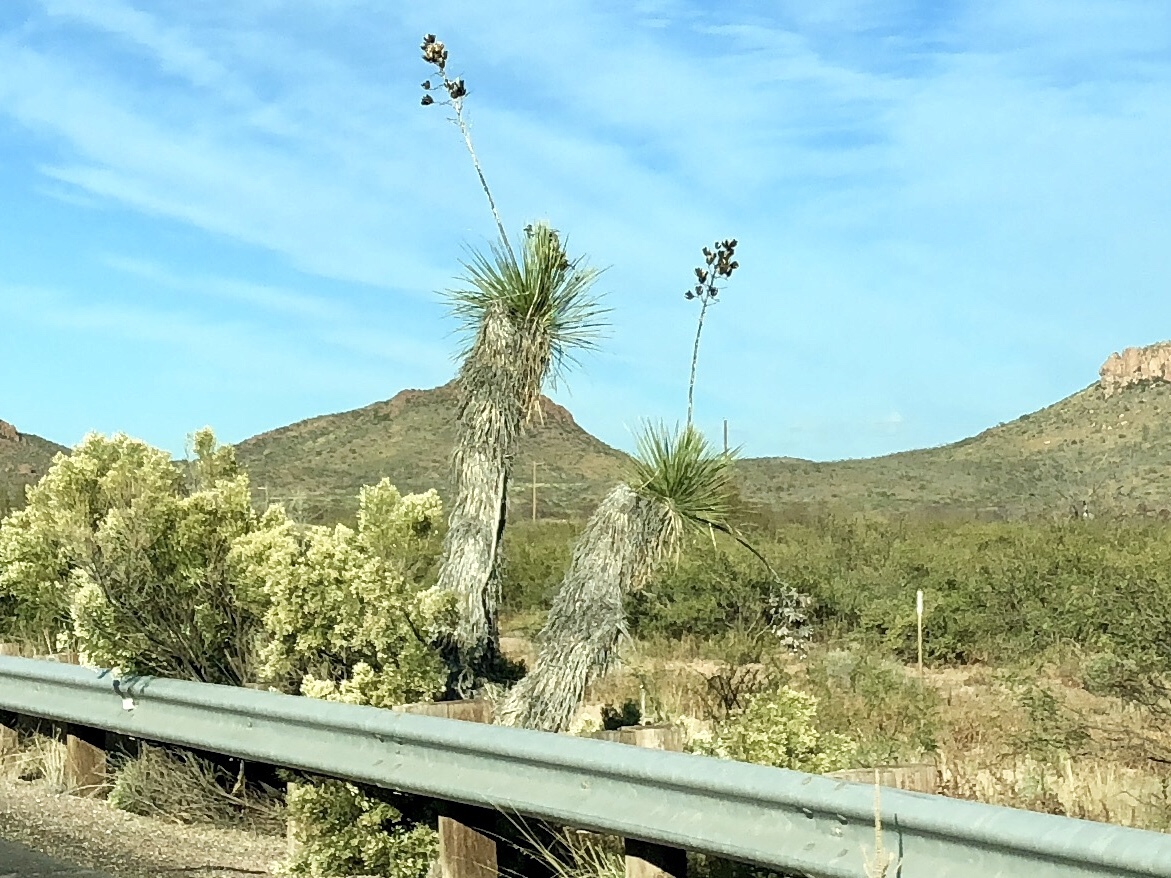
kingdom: Plantae
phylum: Tracheophyta
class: Liliopsida
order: Asparagales
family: Asparagaceae
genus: Yucca
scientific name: Yucca elata
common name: Palmella
